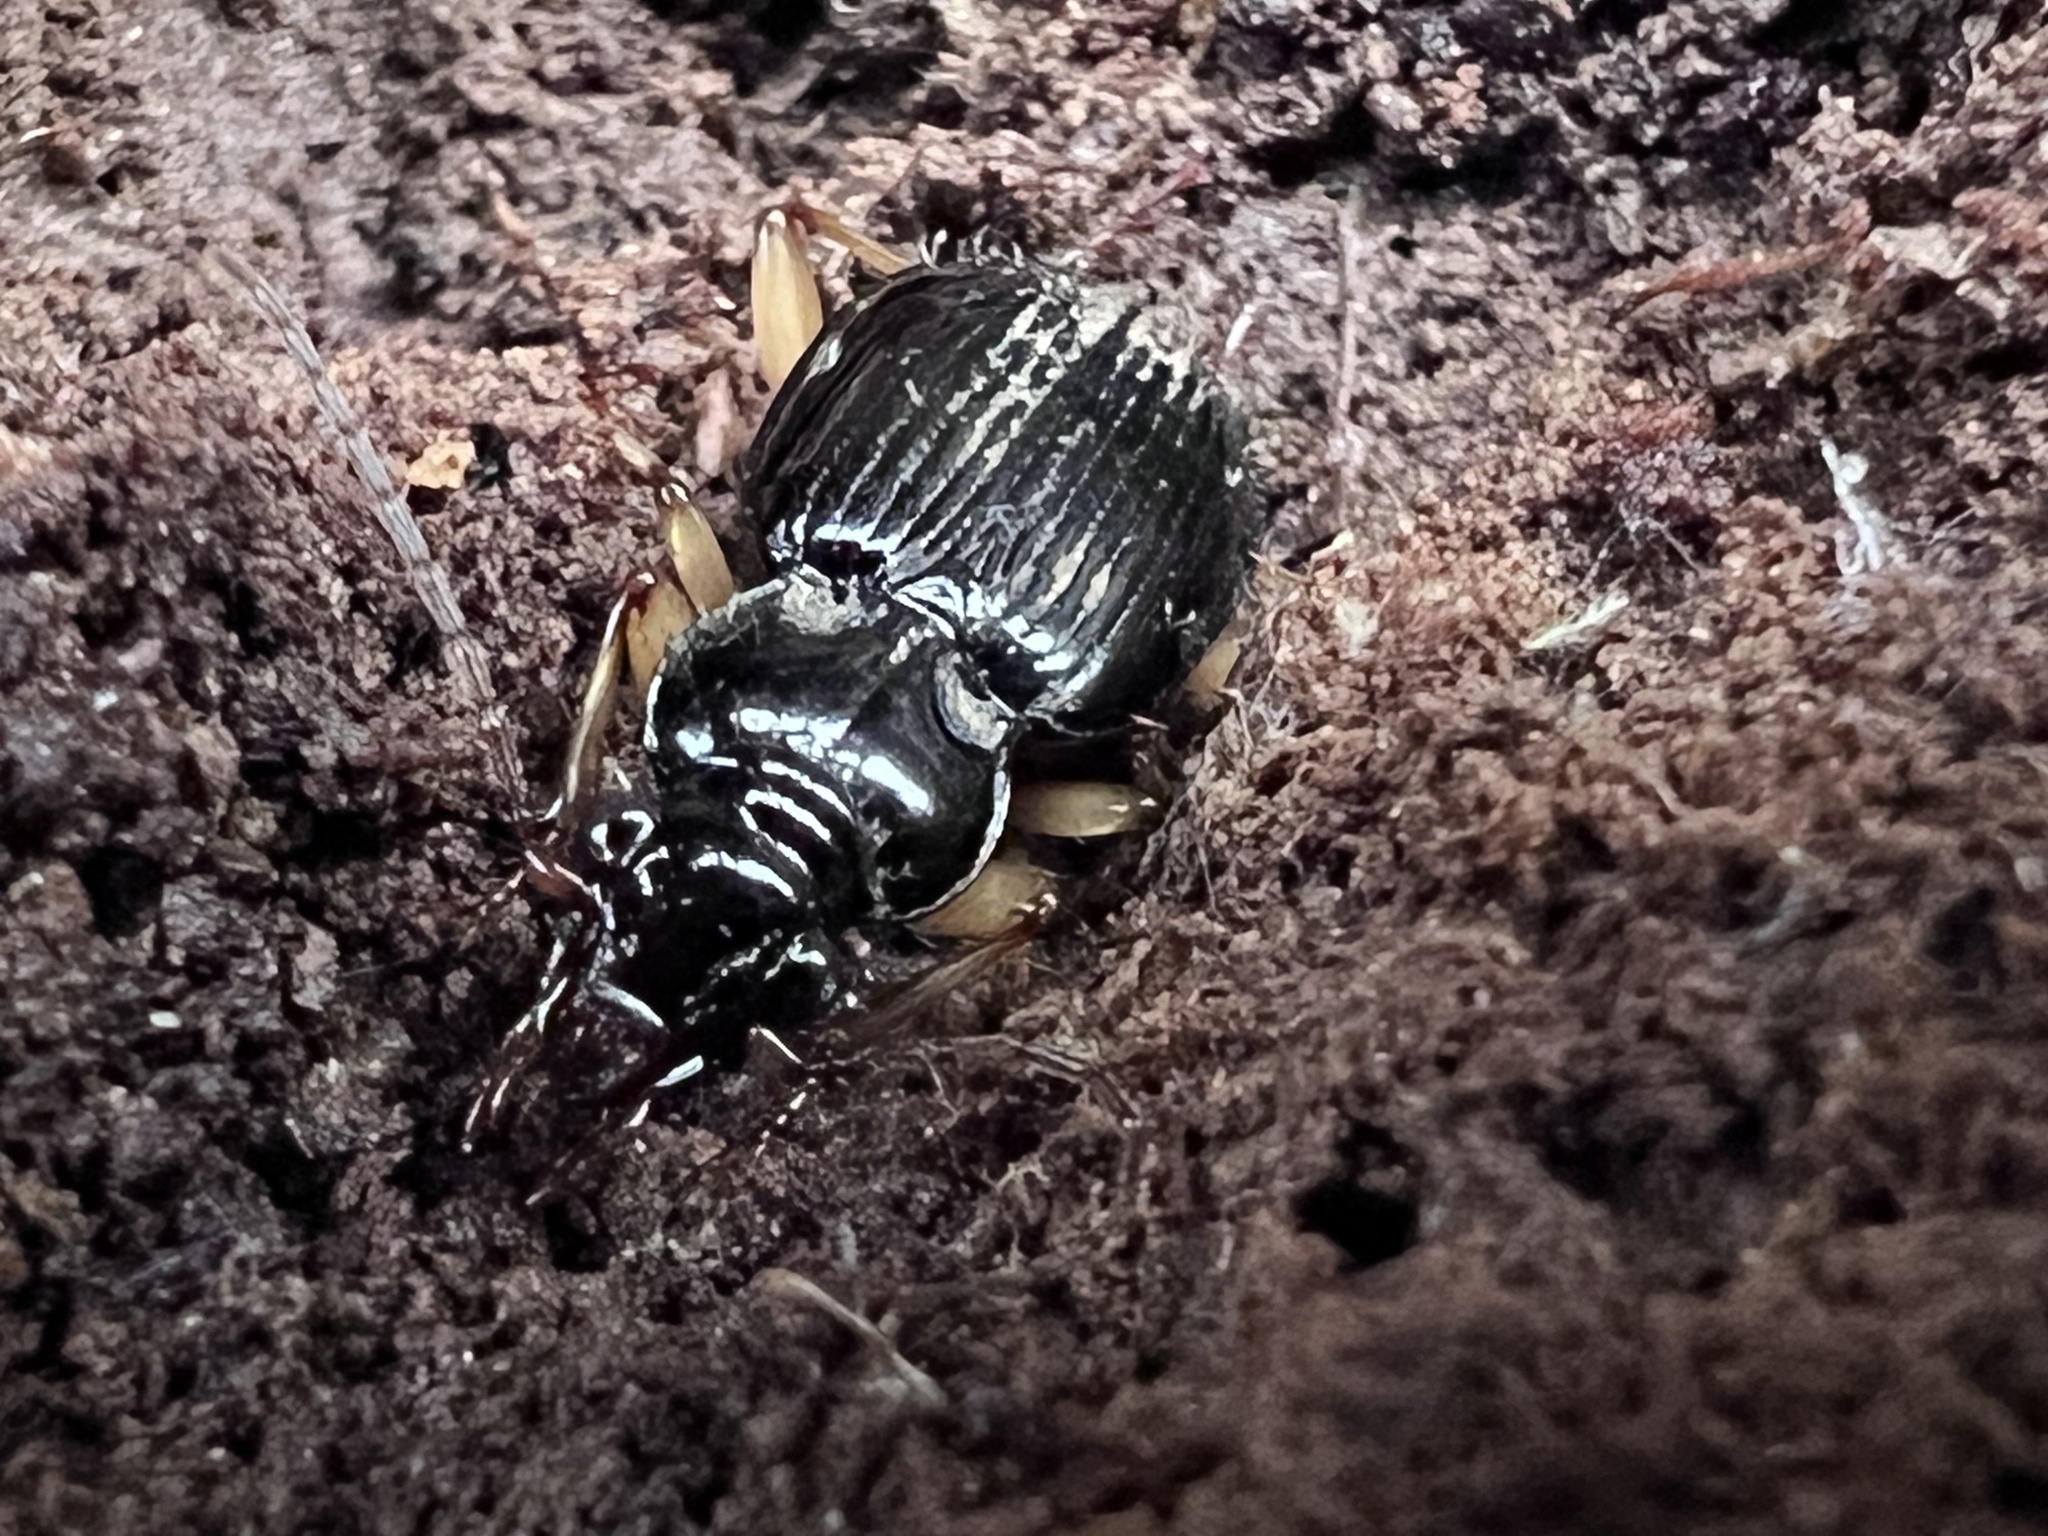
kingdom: Animalia
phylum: Arthropoda
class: Insecta
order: Coleoptera
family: Carabidae
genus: Patrobus
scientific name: Patrobus longicornis
